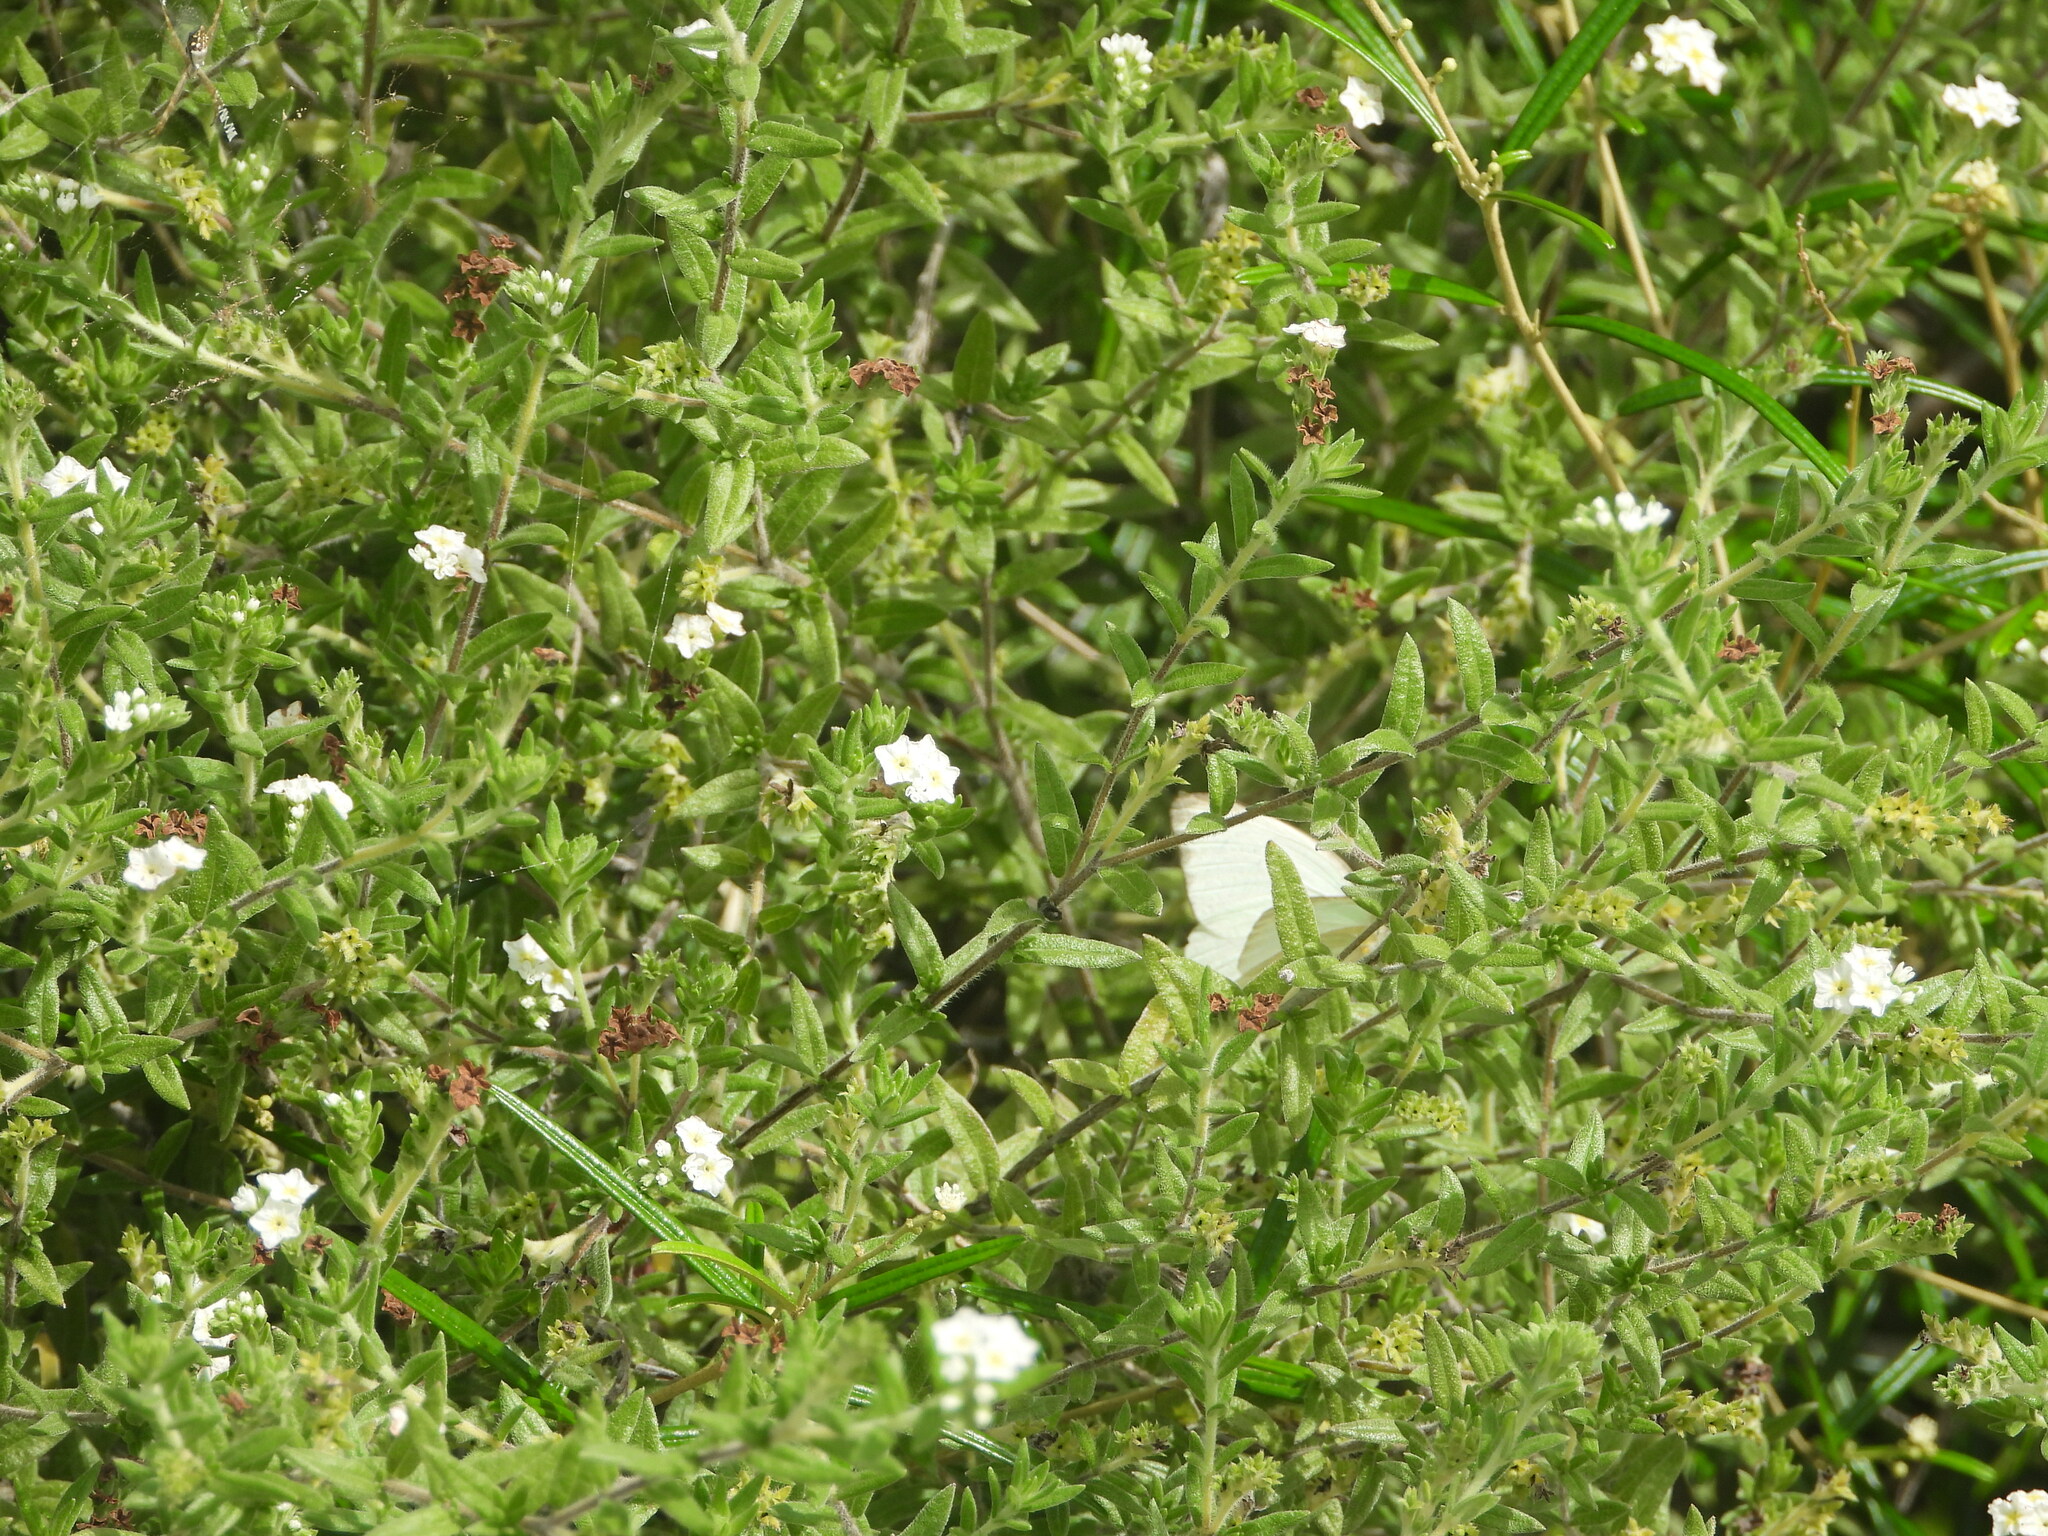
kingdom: Animalia
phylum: Arthropoda
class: Insecta
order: Lepidoptera
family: Pieridae
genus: Ascia
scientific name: Ascia monuste
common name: Great southern white
